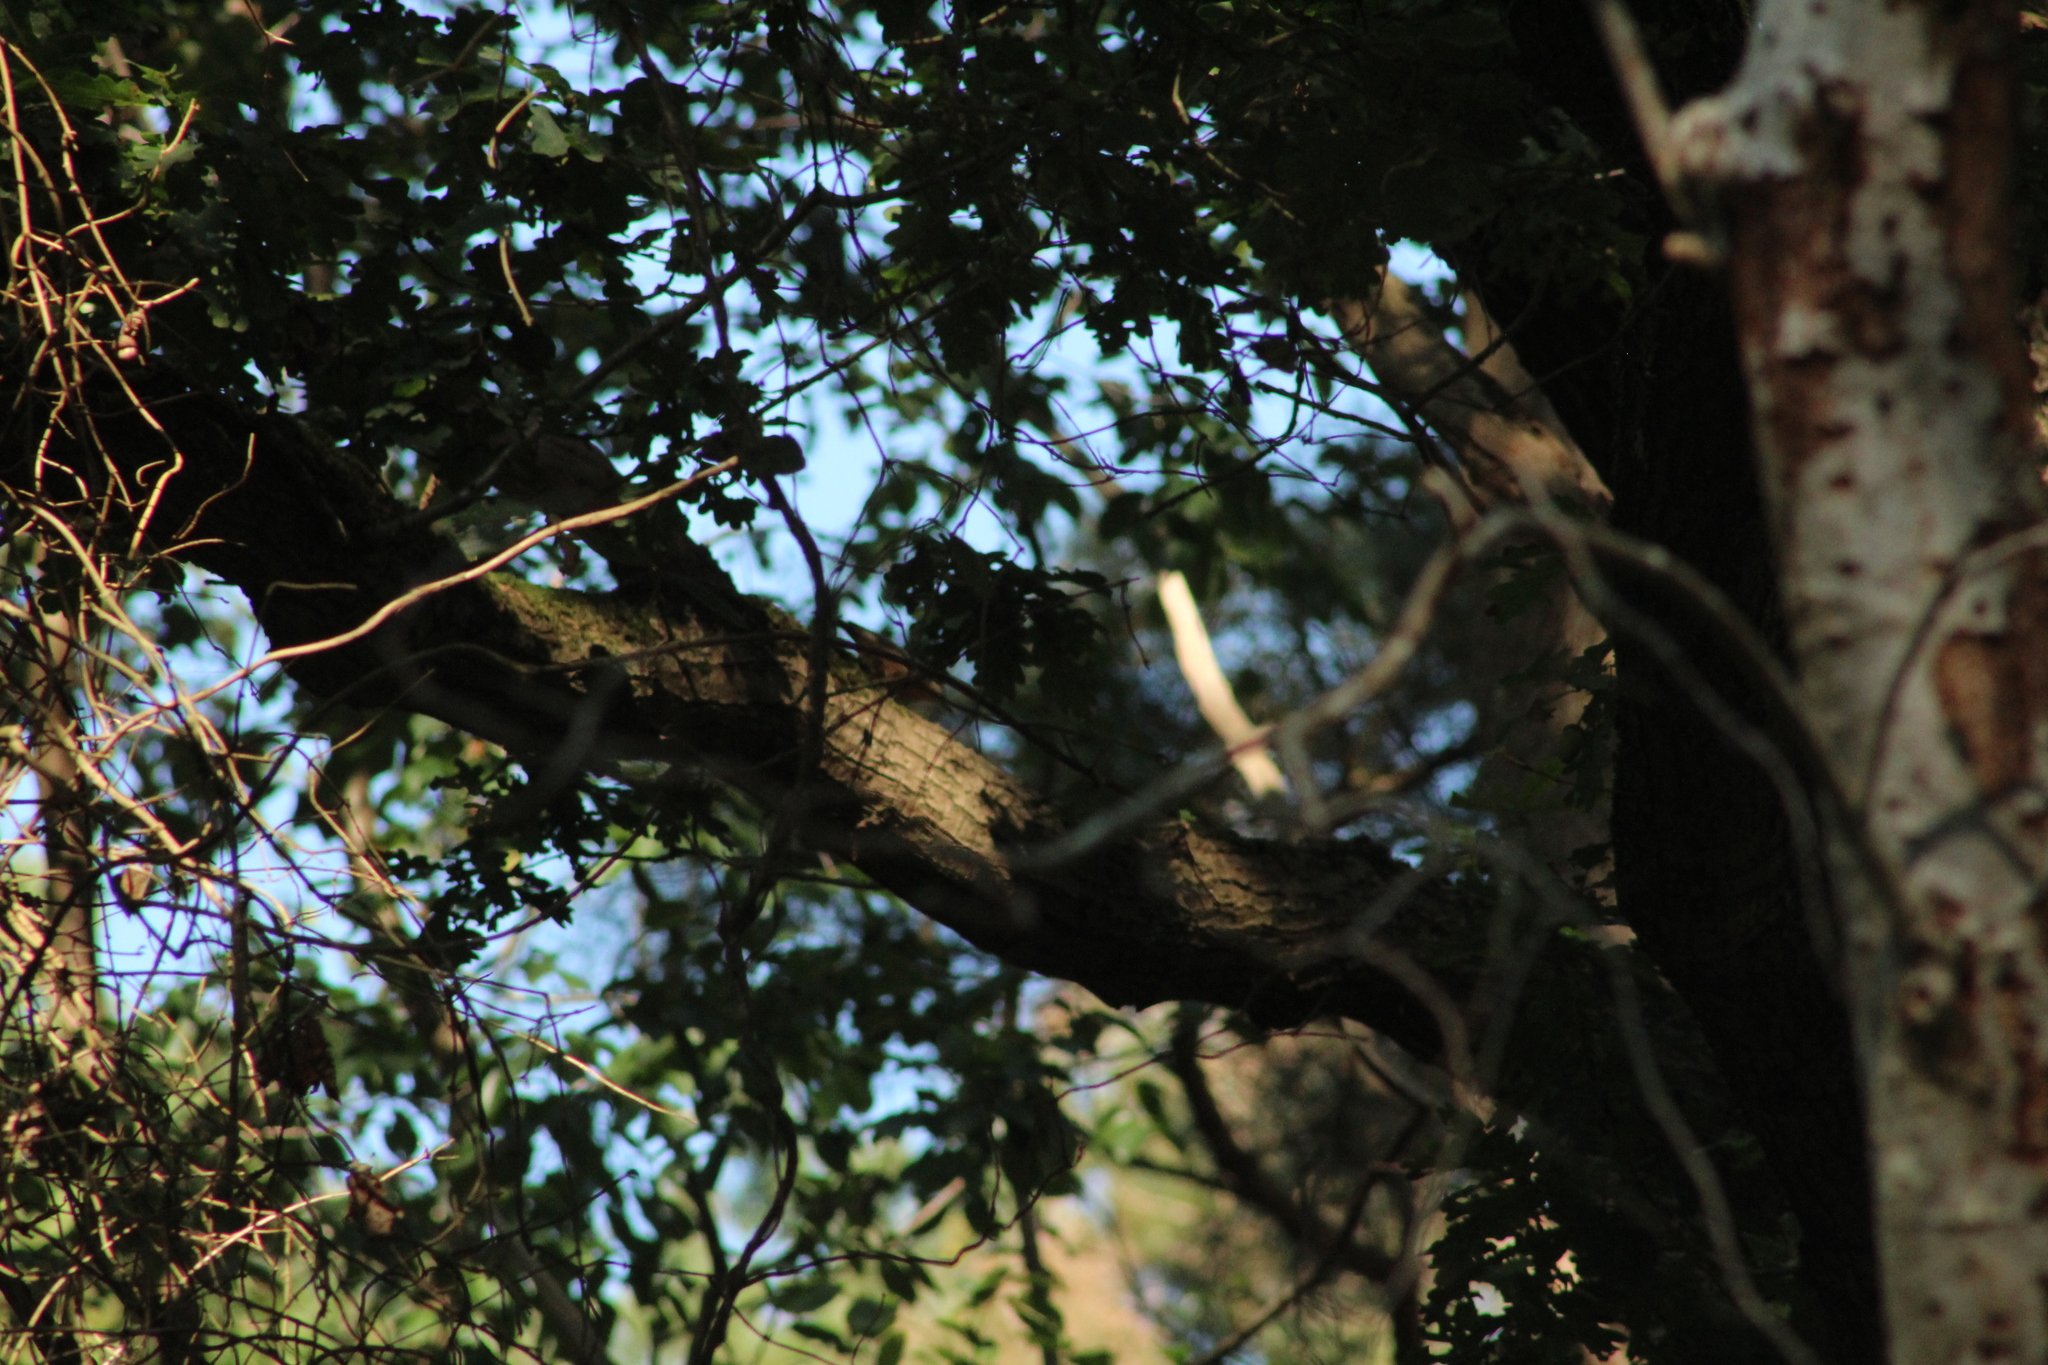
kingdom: Animalia
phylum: Chordata
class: Aves
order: Passeriformes
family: Sittidae
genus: Sitta
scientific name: Sitta europaea
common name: Eurasian nuthatch
